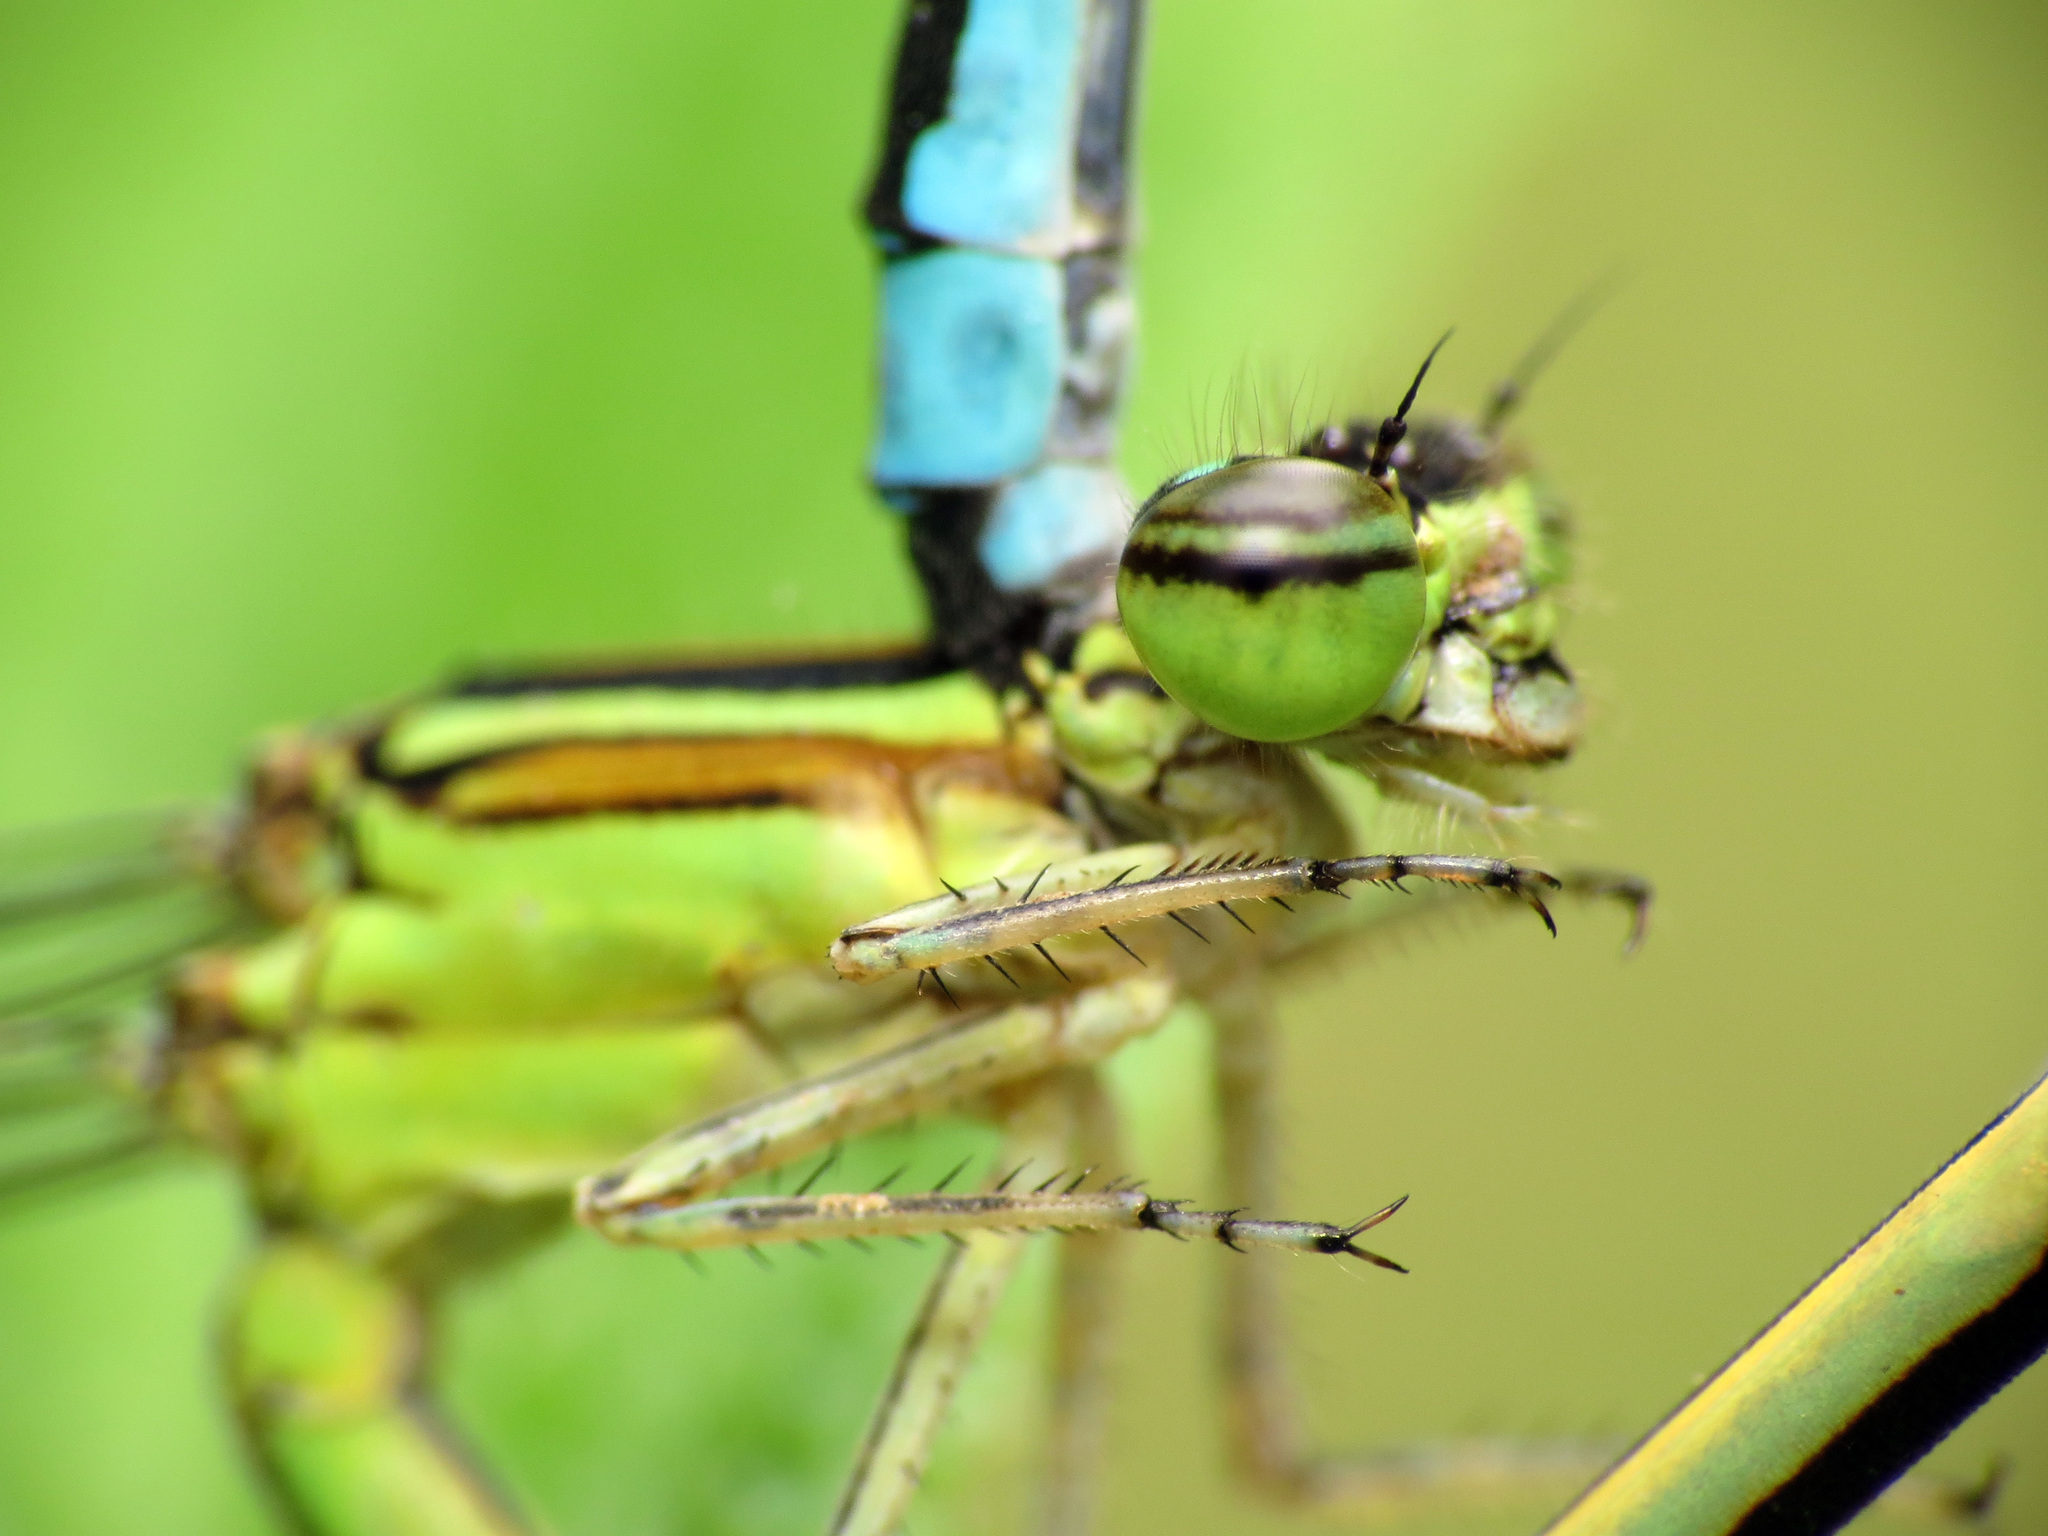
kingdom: Animalia
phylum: Arthropoda
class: Insecta
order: Odonata
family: Coenagrionidae
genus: Enallagma
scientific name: Enallagma exsulans
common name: Stream bluet
